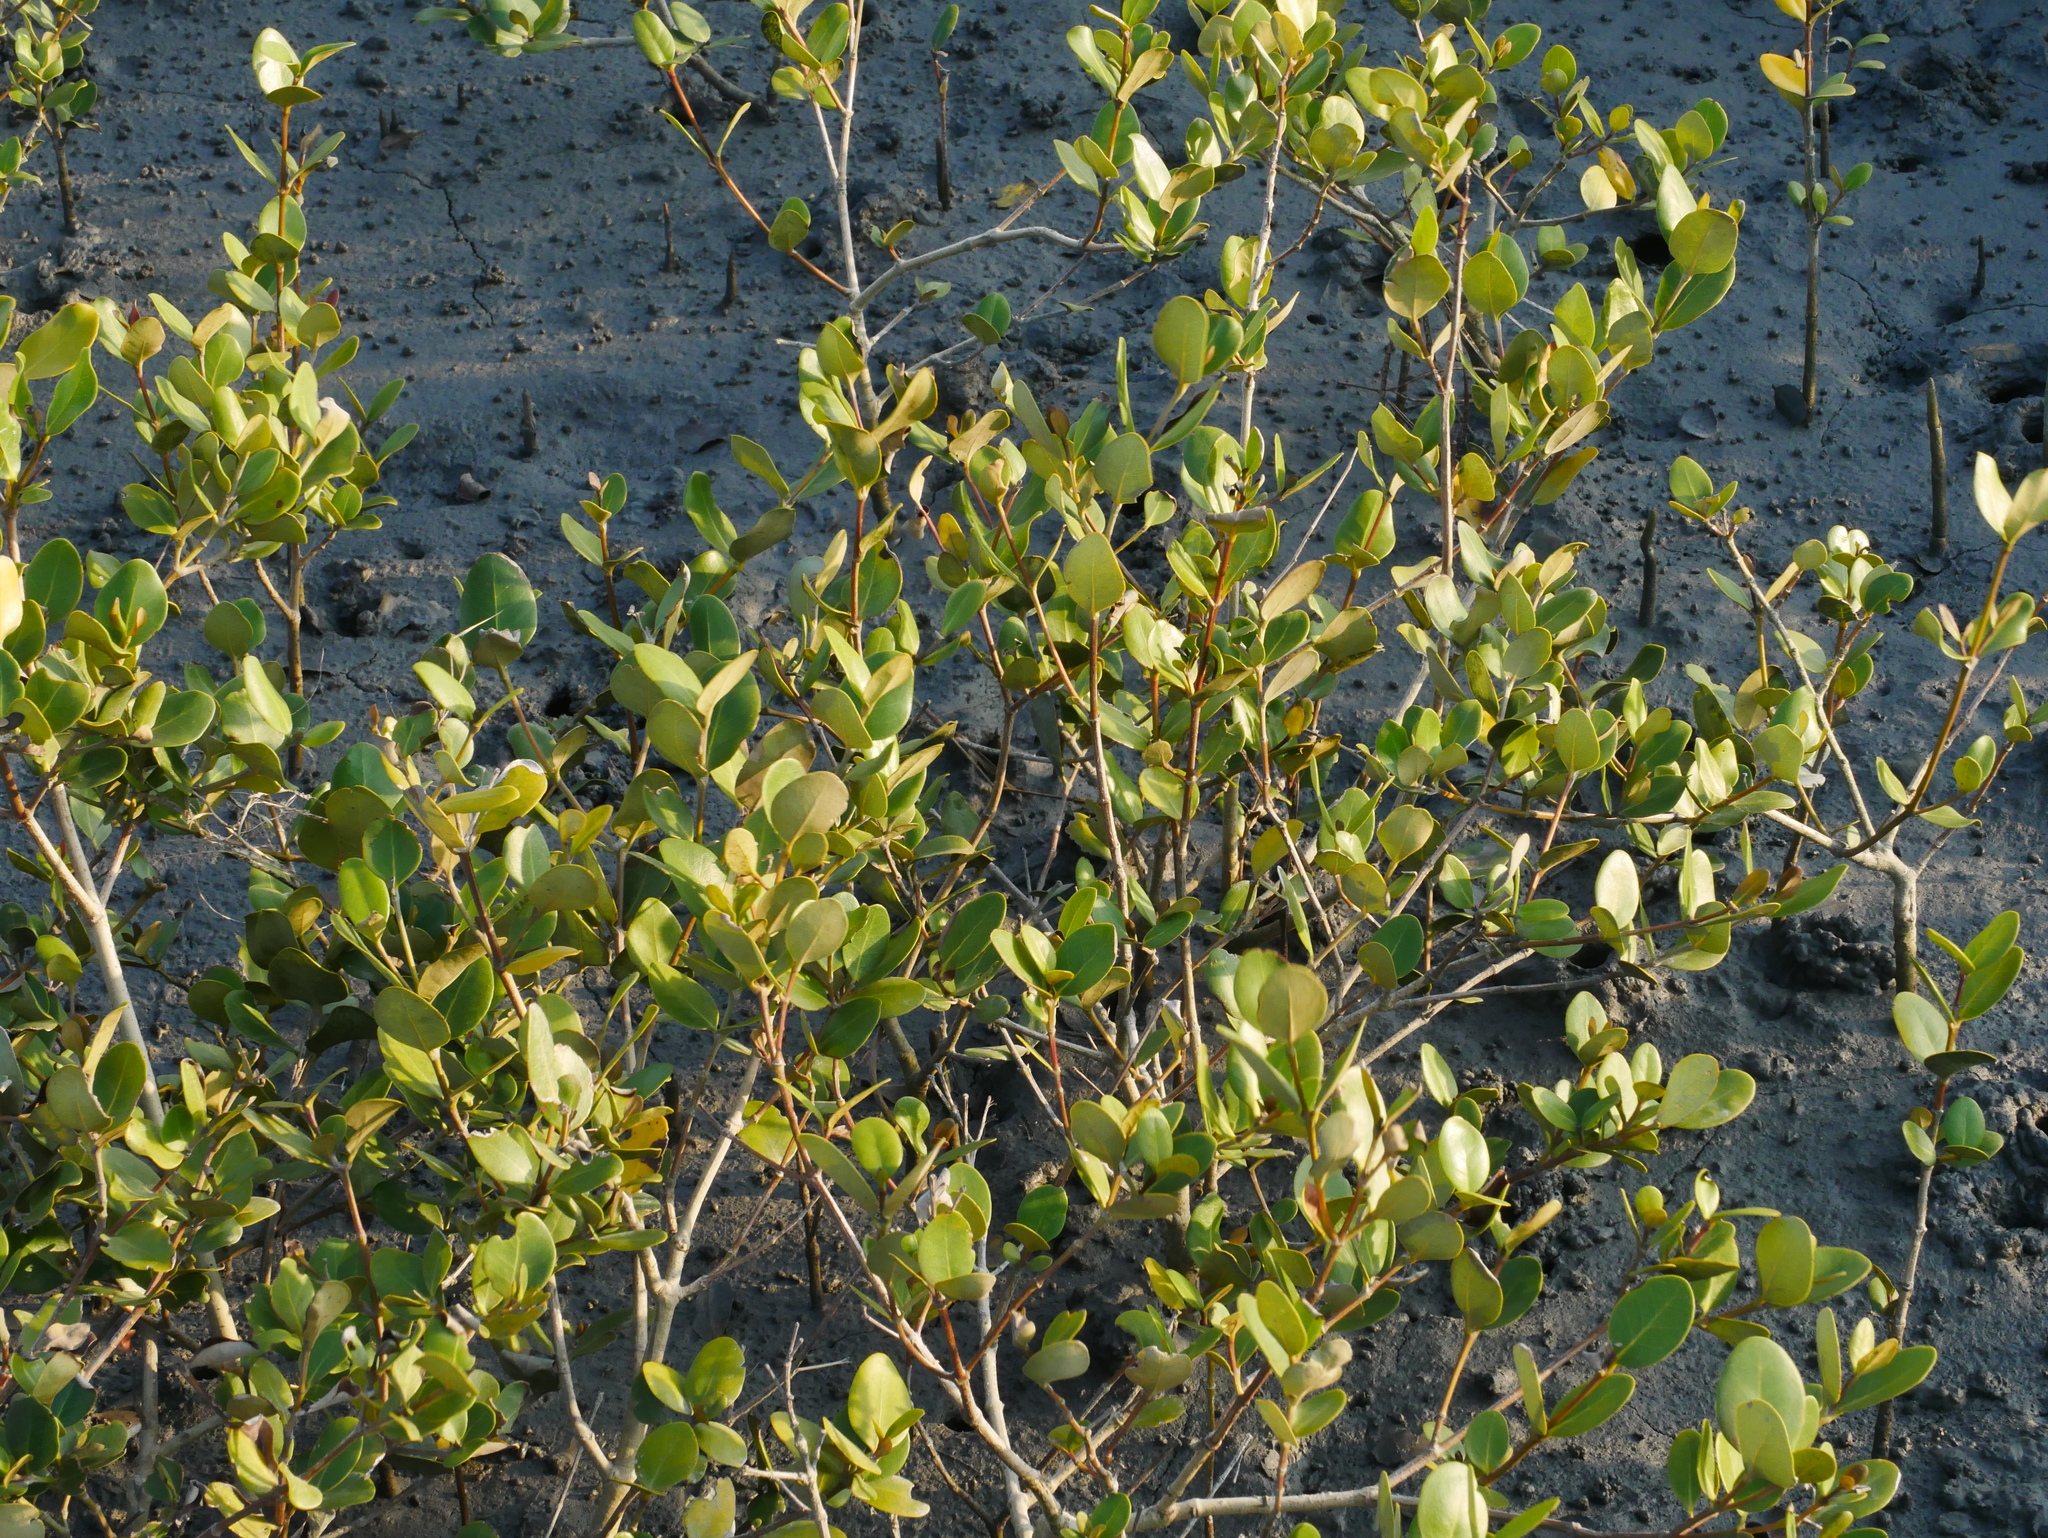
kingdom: Plantae
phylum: Tracheophyta
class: Magnoliopsida
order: Lamiales
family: Acanthaceae
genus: Avicennia
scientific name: Avicennia marina
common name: Gray mangrove
